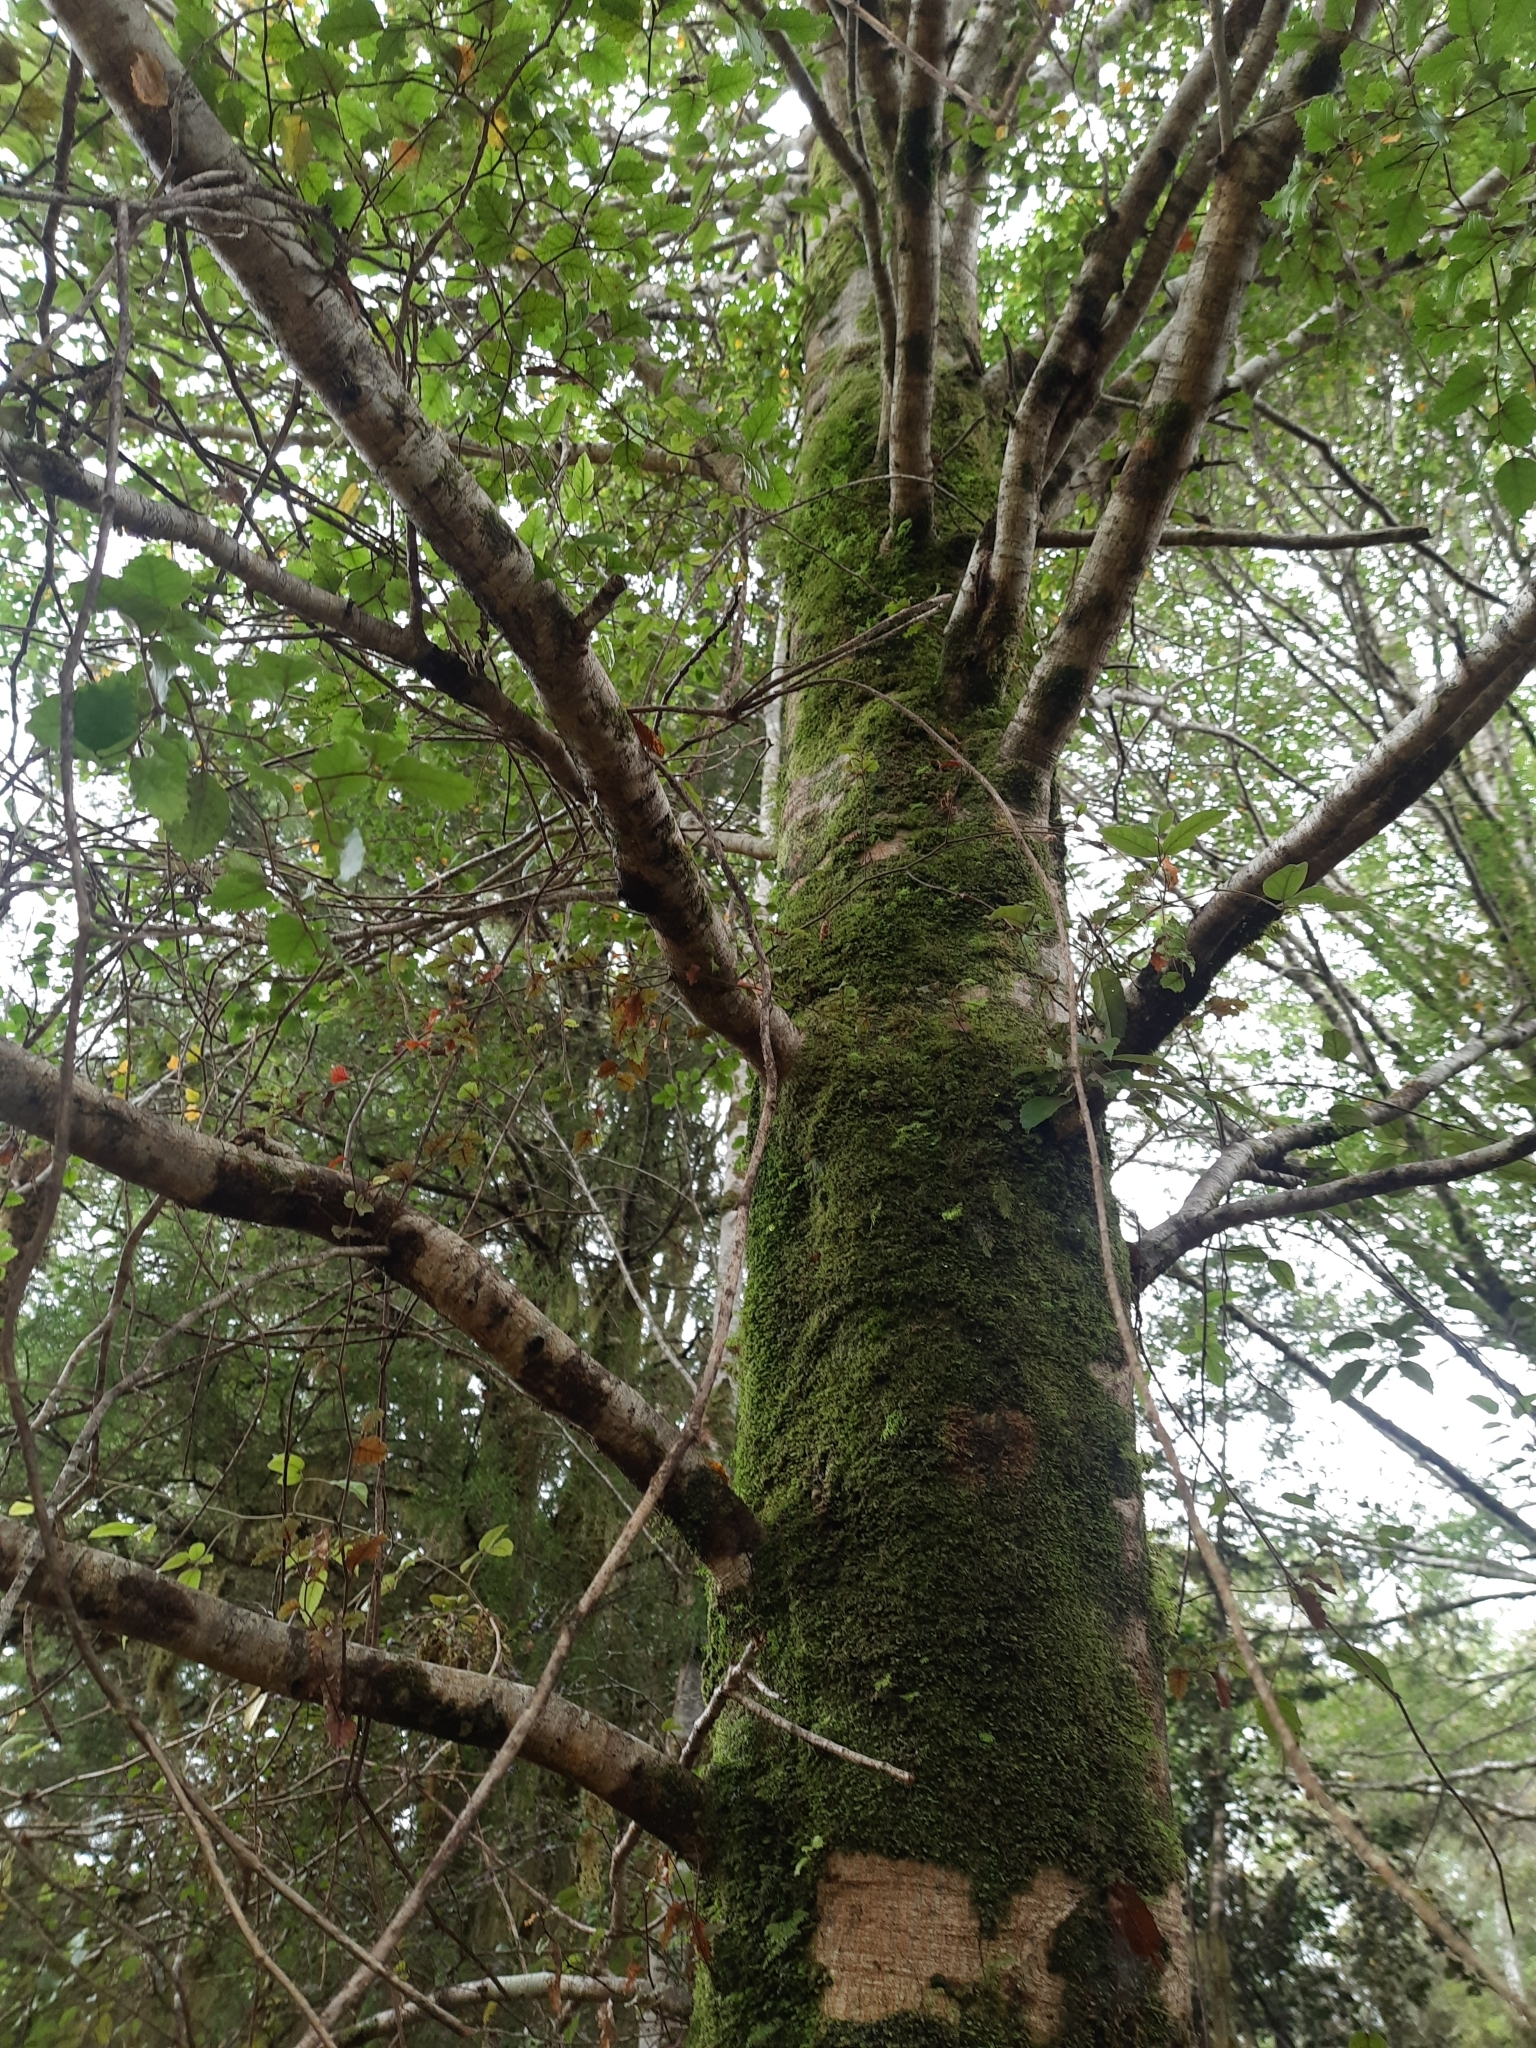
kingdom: Plantae
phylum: Tracheophyta
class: Magnoliopsida
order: Fagales
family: Nothofagaceae
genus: Nothofagus
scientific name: Nothofagus fusca
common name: Red beech
